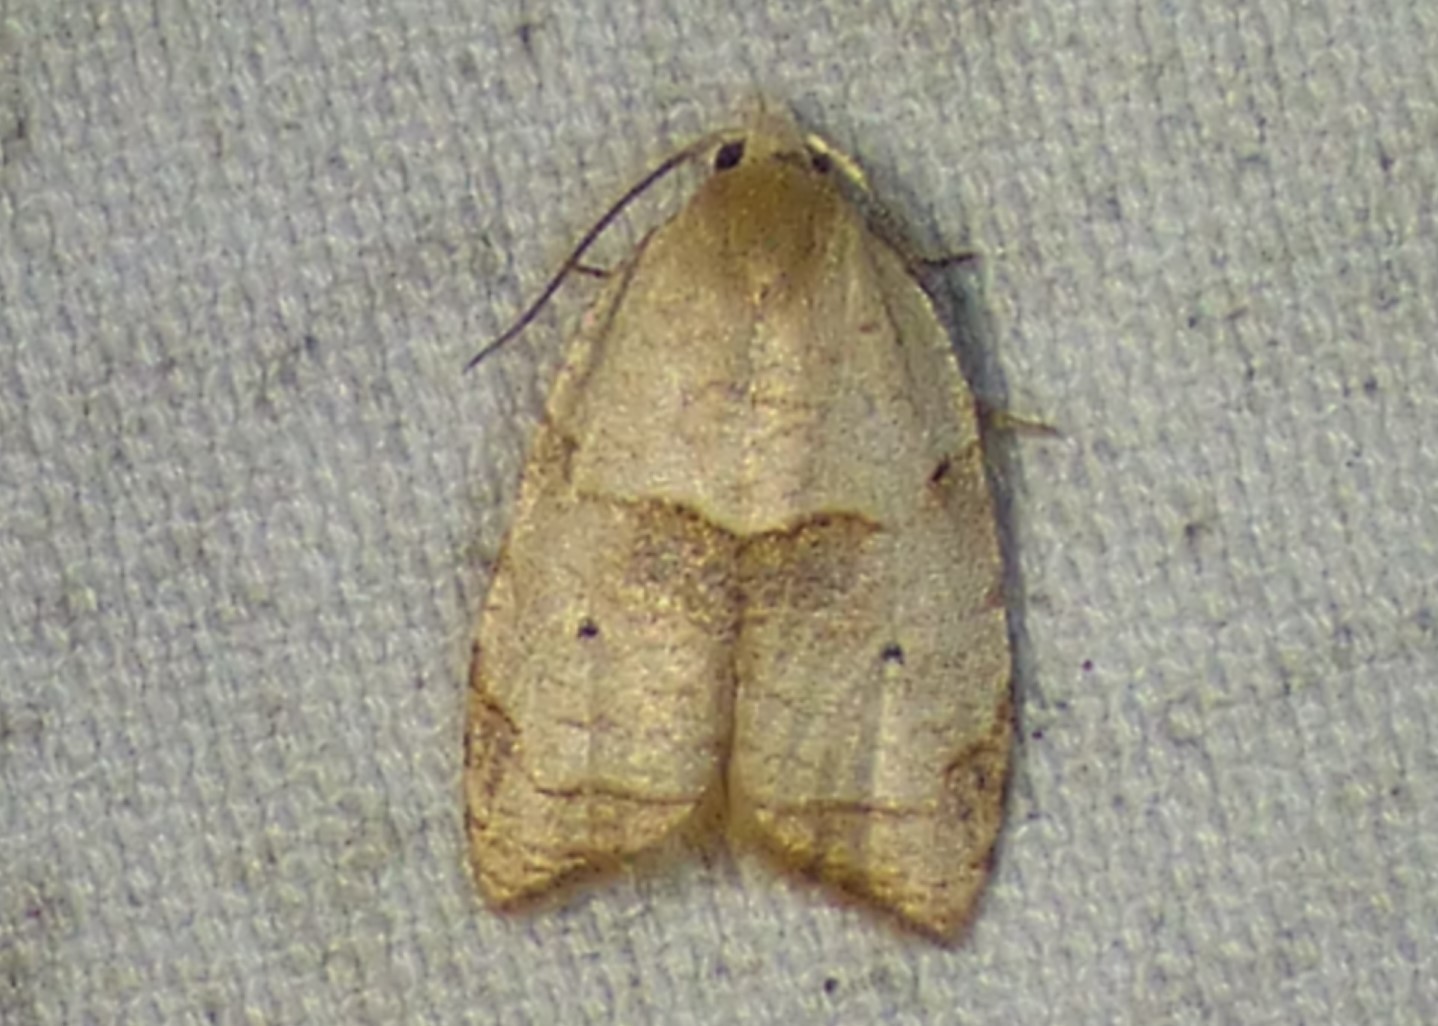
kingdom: Animalia
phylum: Arthropoda
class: Insecta
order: Lepidoptera
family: Tortricidae
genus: Coelostathma
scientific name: Coelostathma discopunctana
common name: Batman moth
